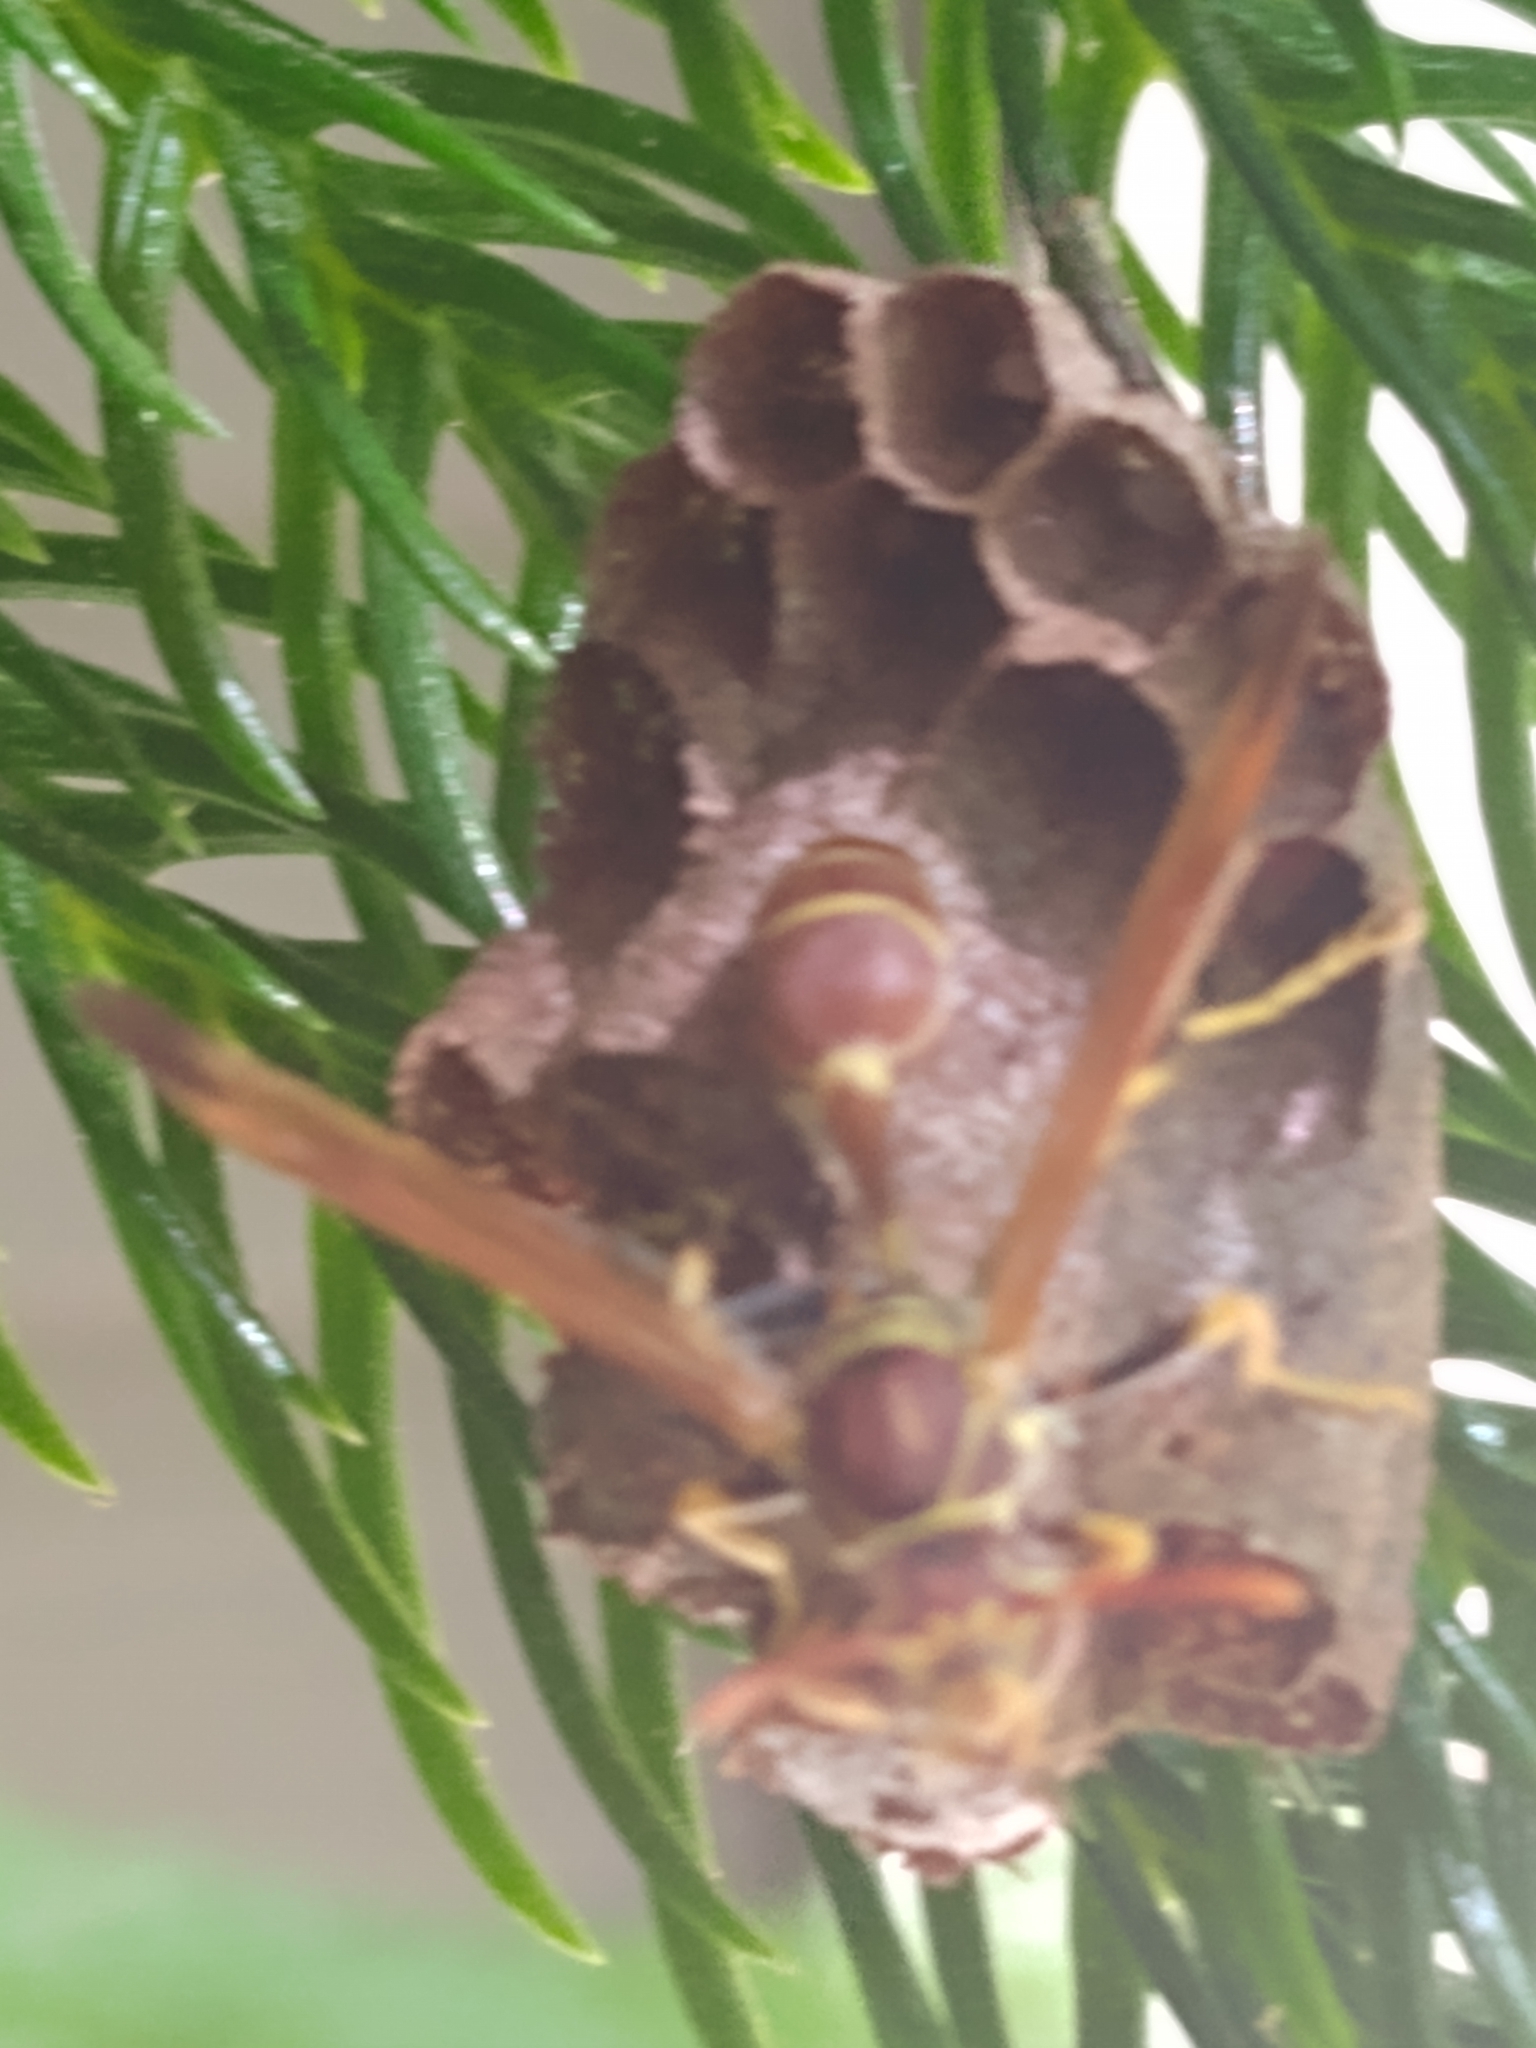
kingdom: Animalia
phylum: Arthropoda
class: Insecta
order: Hymenoptera
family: Vespidae
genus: Mischocyttarus
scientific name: Mischocyttarus mexicanus
